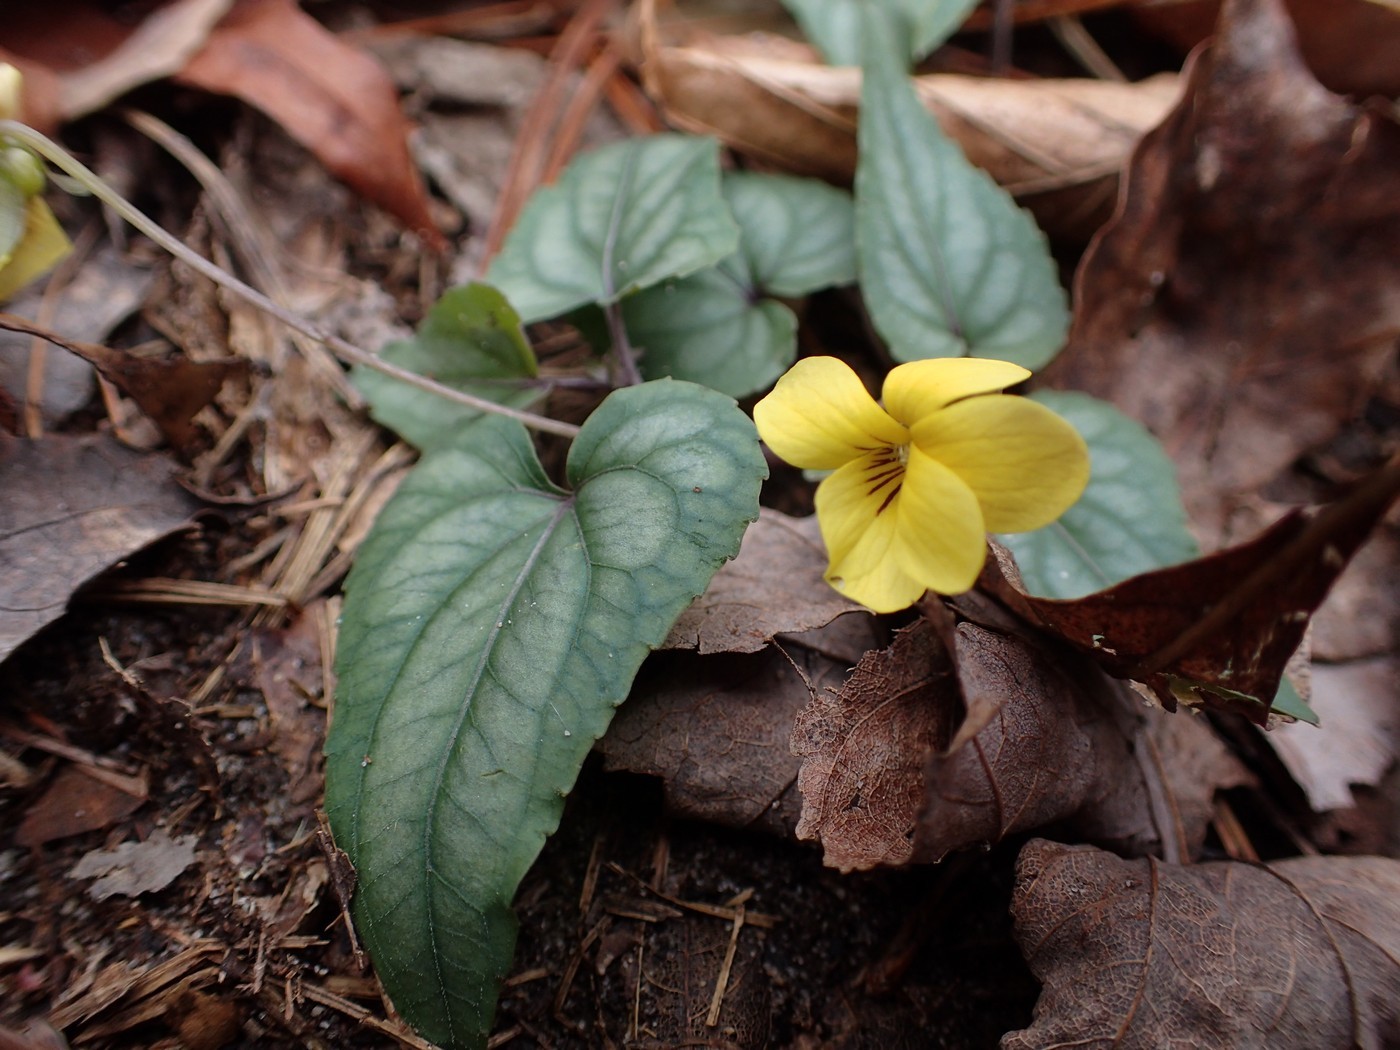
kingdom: Plantae
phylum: Tracheophyta
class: Magnoliopsida
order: Malpighiales
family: Violaceae
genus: Viola
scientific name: Viola hastata
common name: Spear-leaf violet
